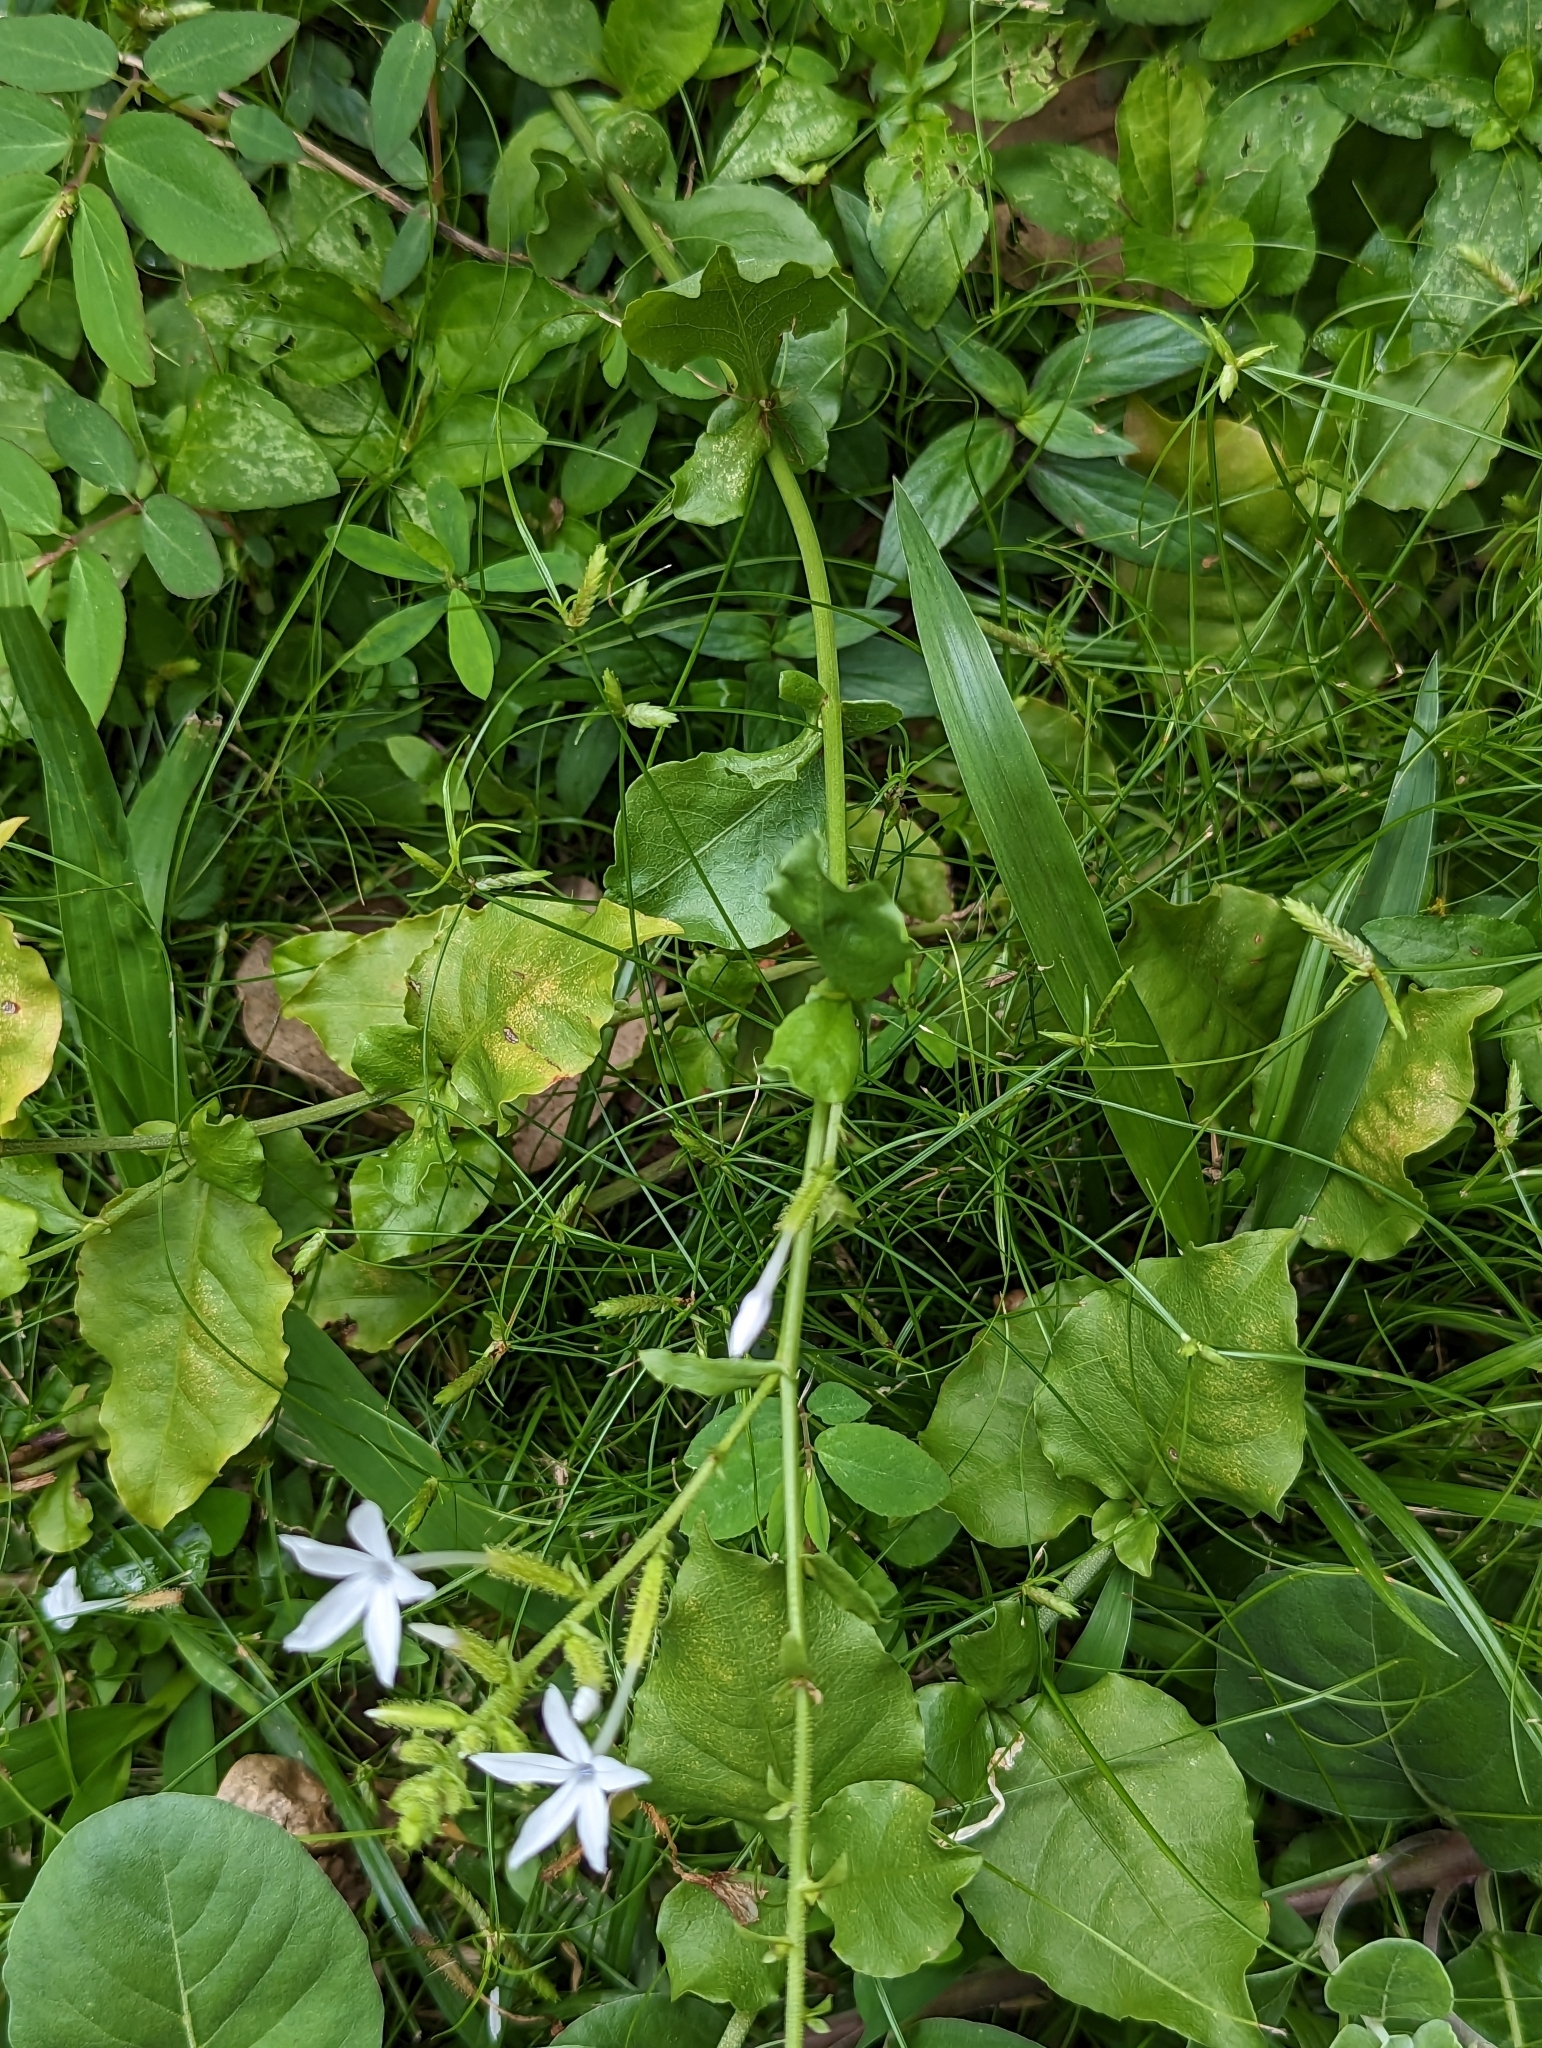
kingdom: Plantae
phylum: Tracheophyta
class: Magnoliopsida
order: Caryophyllales
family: Plumbaginaceae
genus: Plumbago
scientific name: Plumbago zeylanica
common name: Doctorbush
